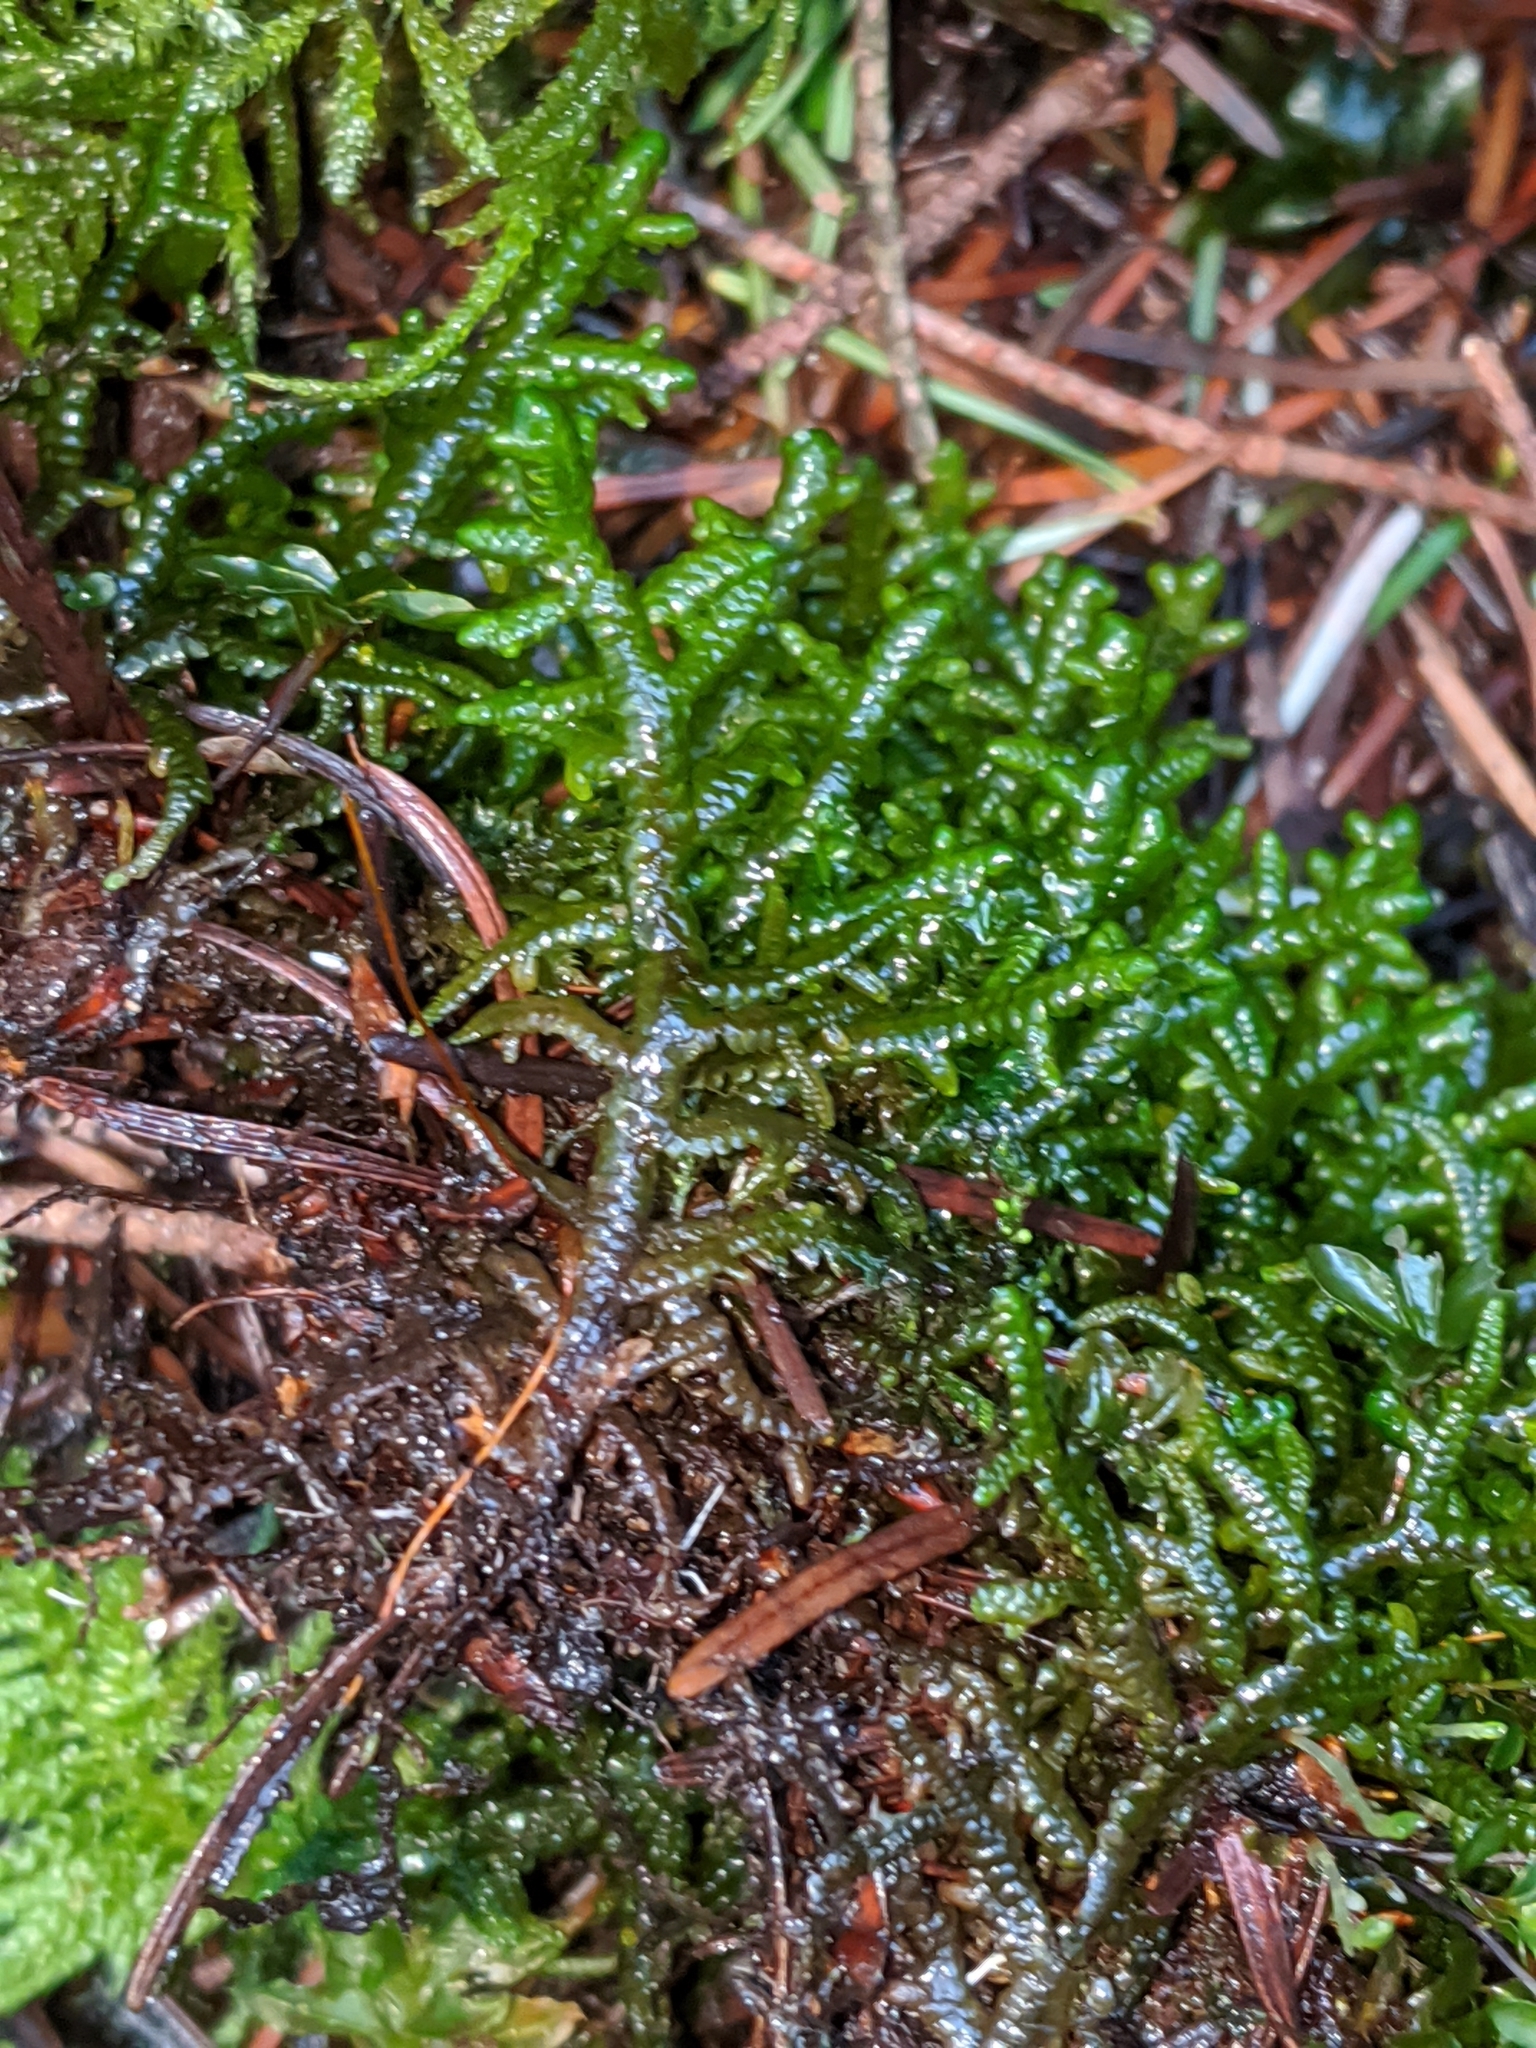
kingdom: Plantae
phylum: Marchantiophyta
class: Jungermanniopsida
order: Porellales
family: Porellaceae
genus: Porella
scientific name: Porella navicularis
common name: Tree ruffle liverwort
